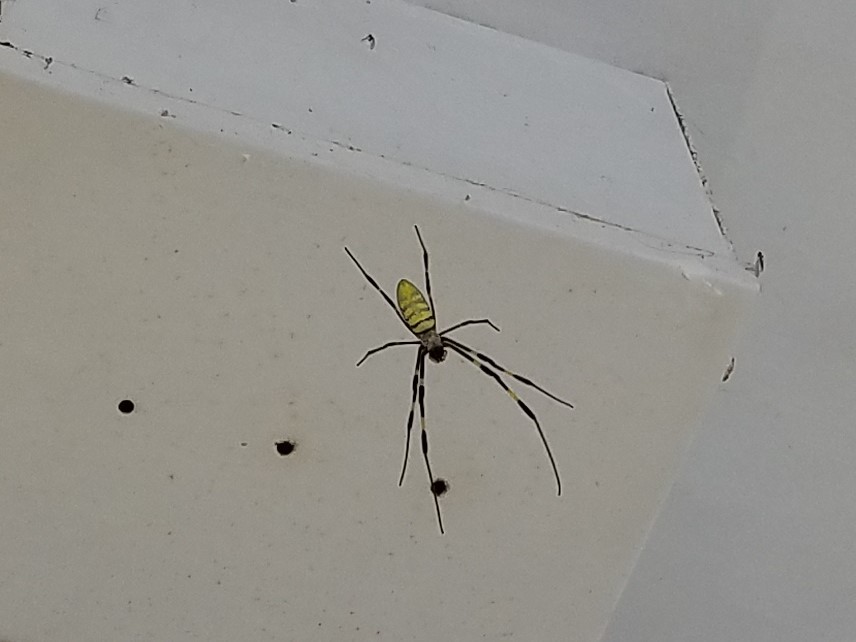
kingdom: Animalia
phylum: Arthropoda
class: Arachnida
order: Araneae
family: Araneidae
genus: Trichonephila
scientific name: Trichonephila clavata
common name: Jorō spider
